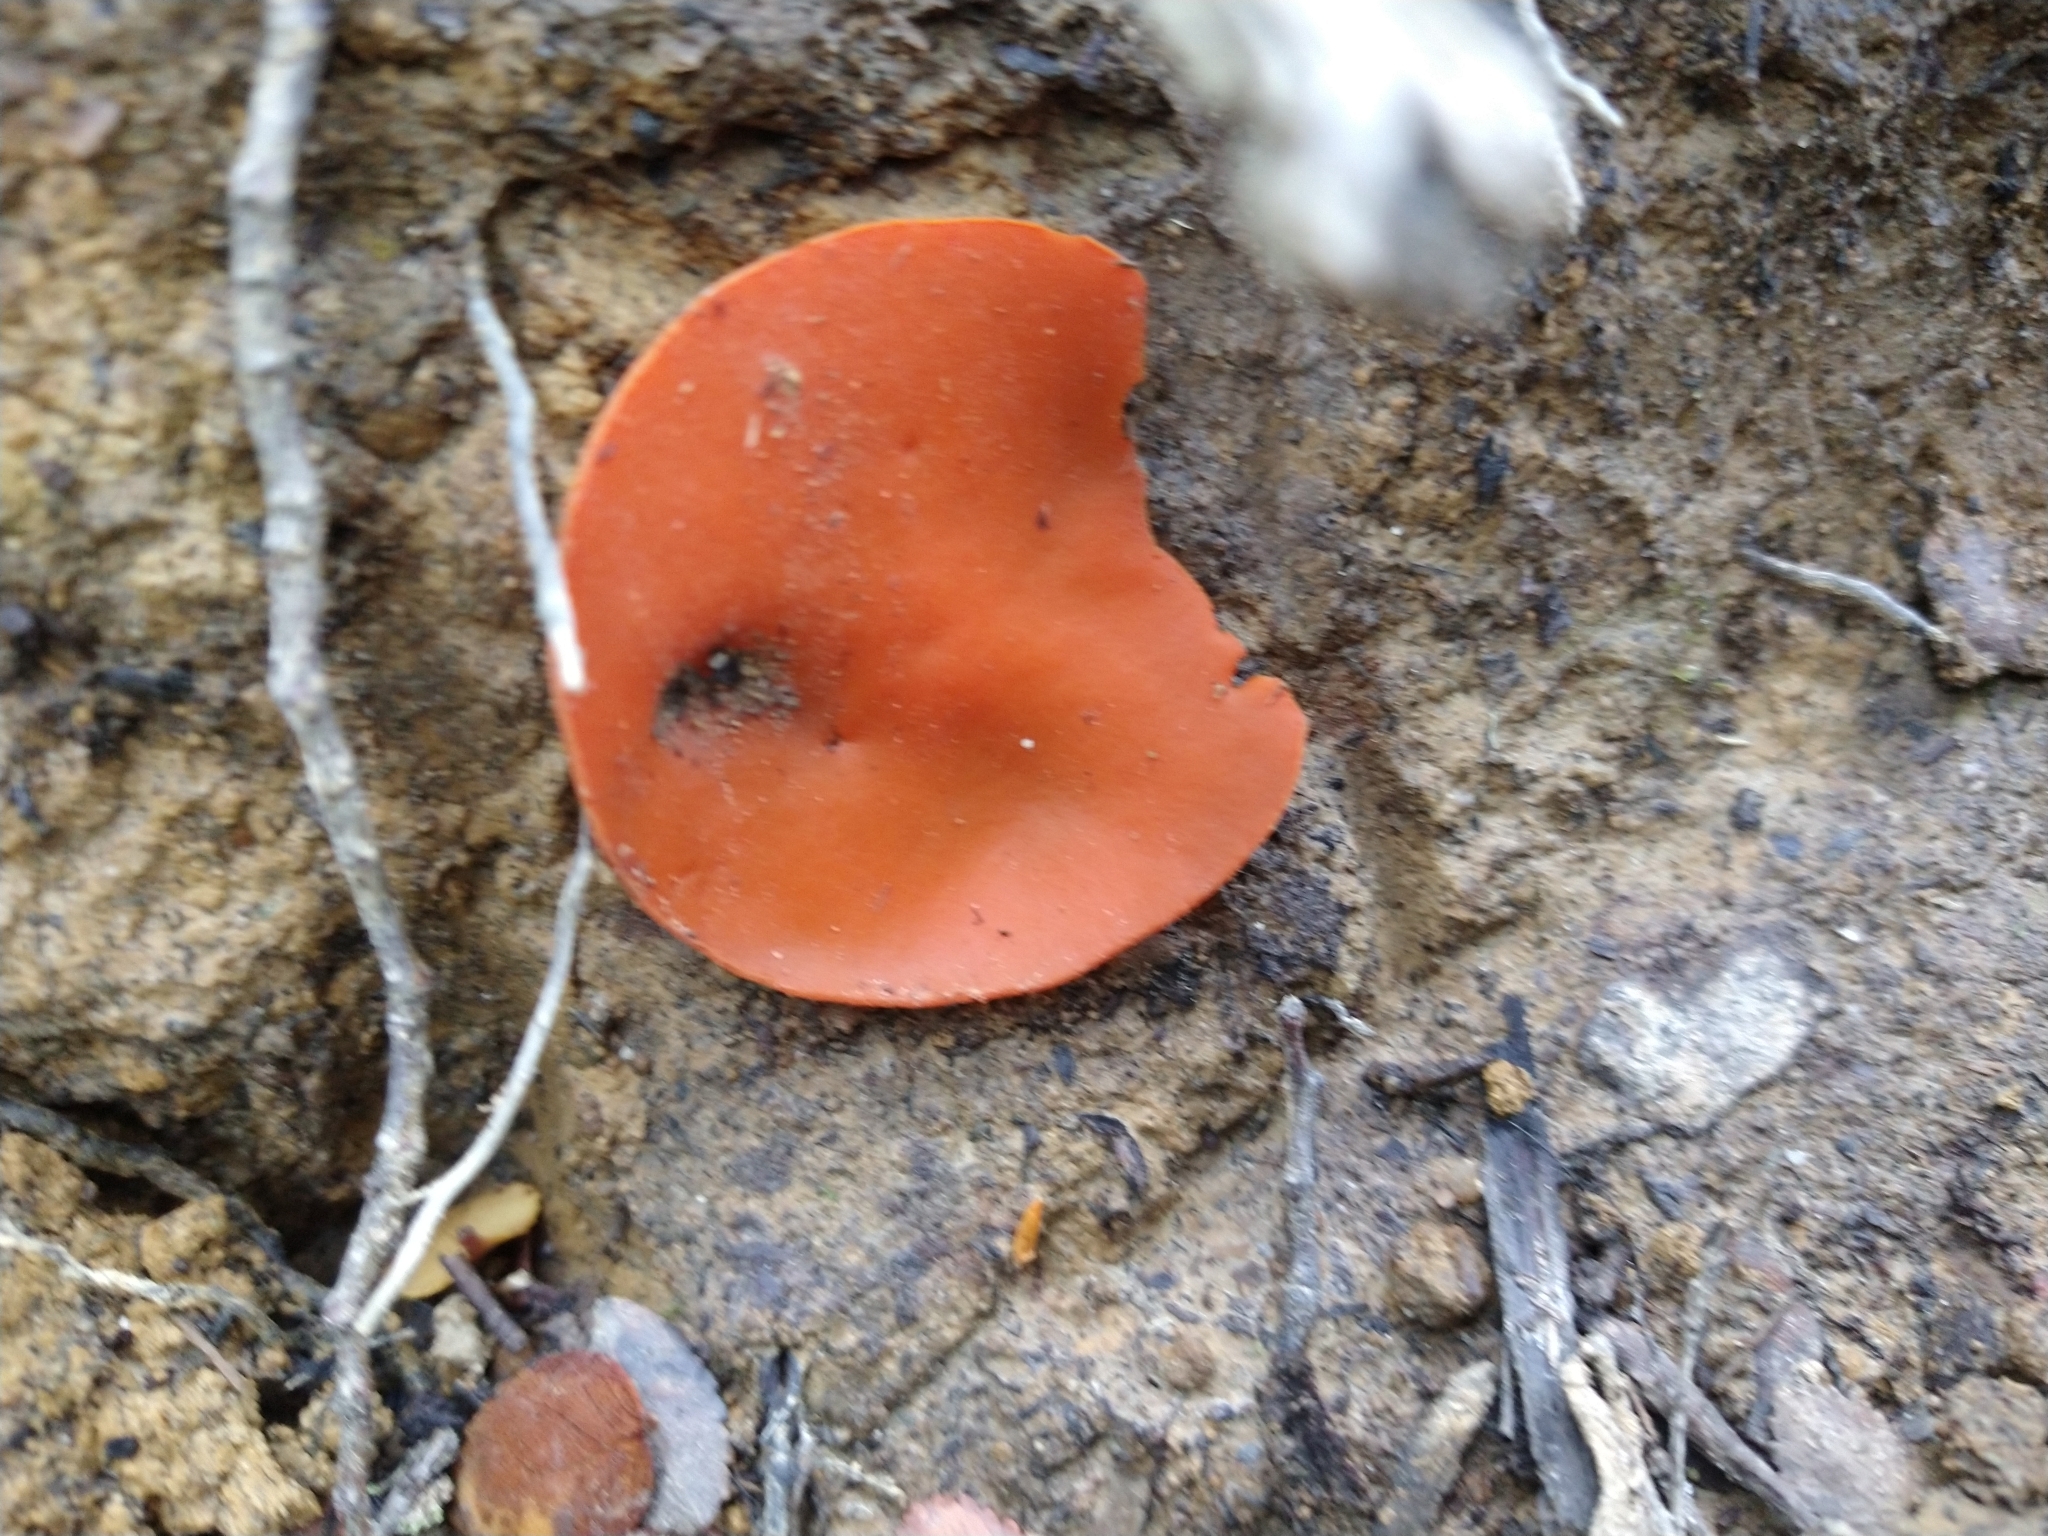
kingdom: Fungi
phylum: Ascomycota
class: Pezizomycetes
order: Pezizales
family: Pyronemataceae
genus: Aleuria
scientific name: Aleuria aurantia
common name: Orange peel fungus
